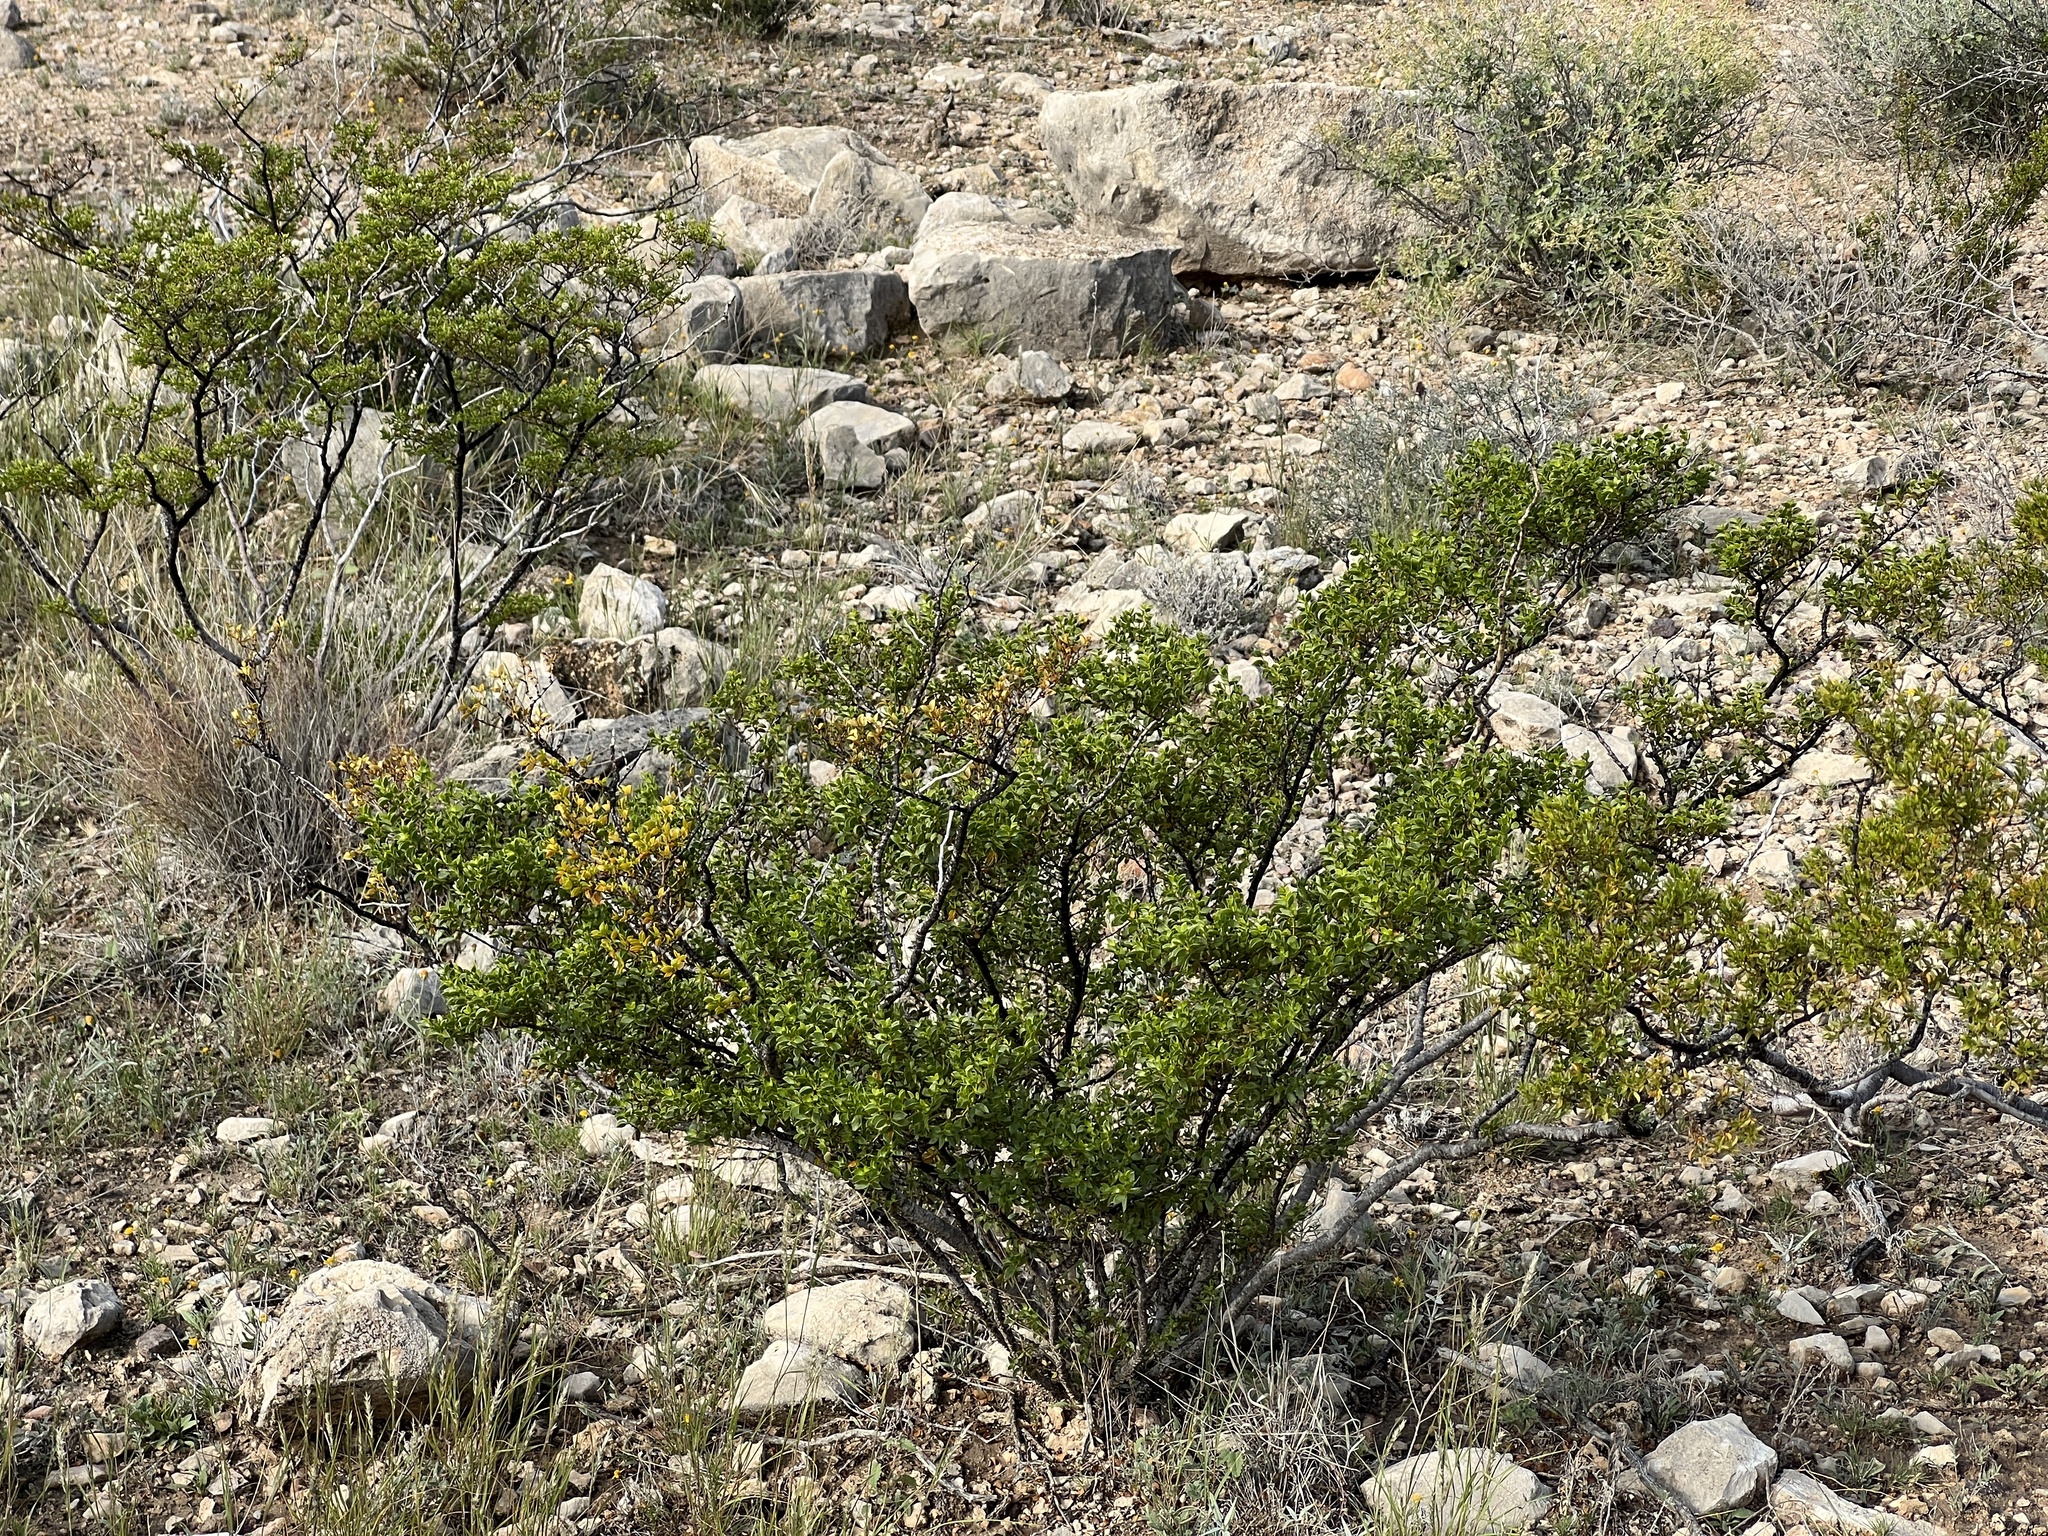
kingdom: Plantae
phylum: Tracheophyta
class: Magnoliopsida
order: Zygophyllales
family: Zygophyllaceae
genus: Larrea
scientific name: Larrea tridentata
